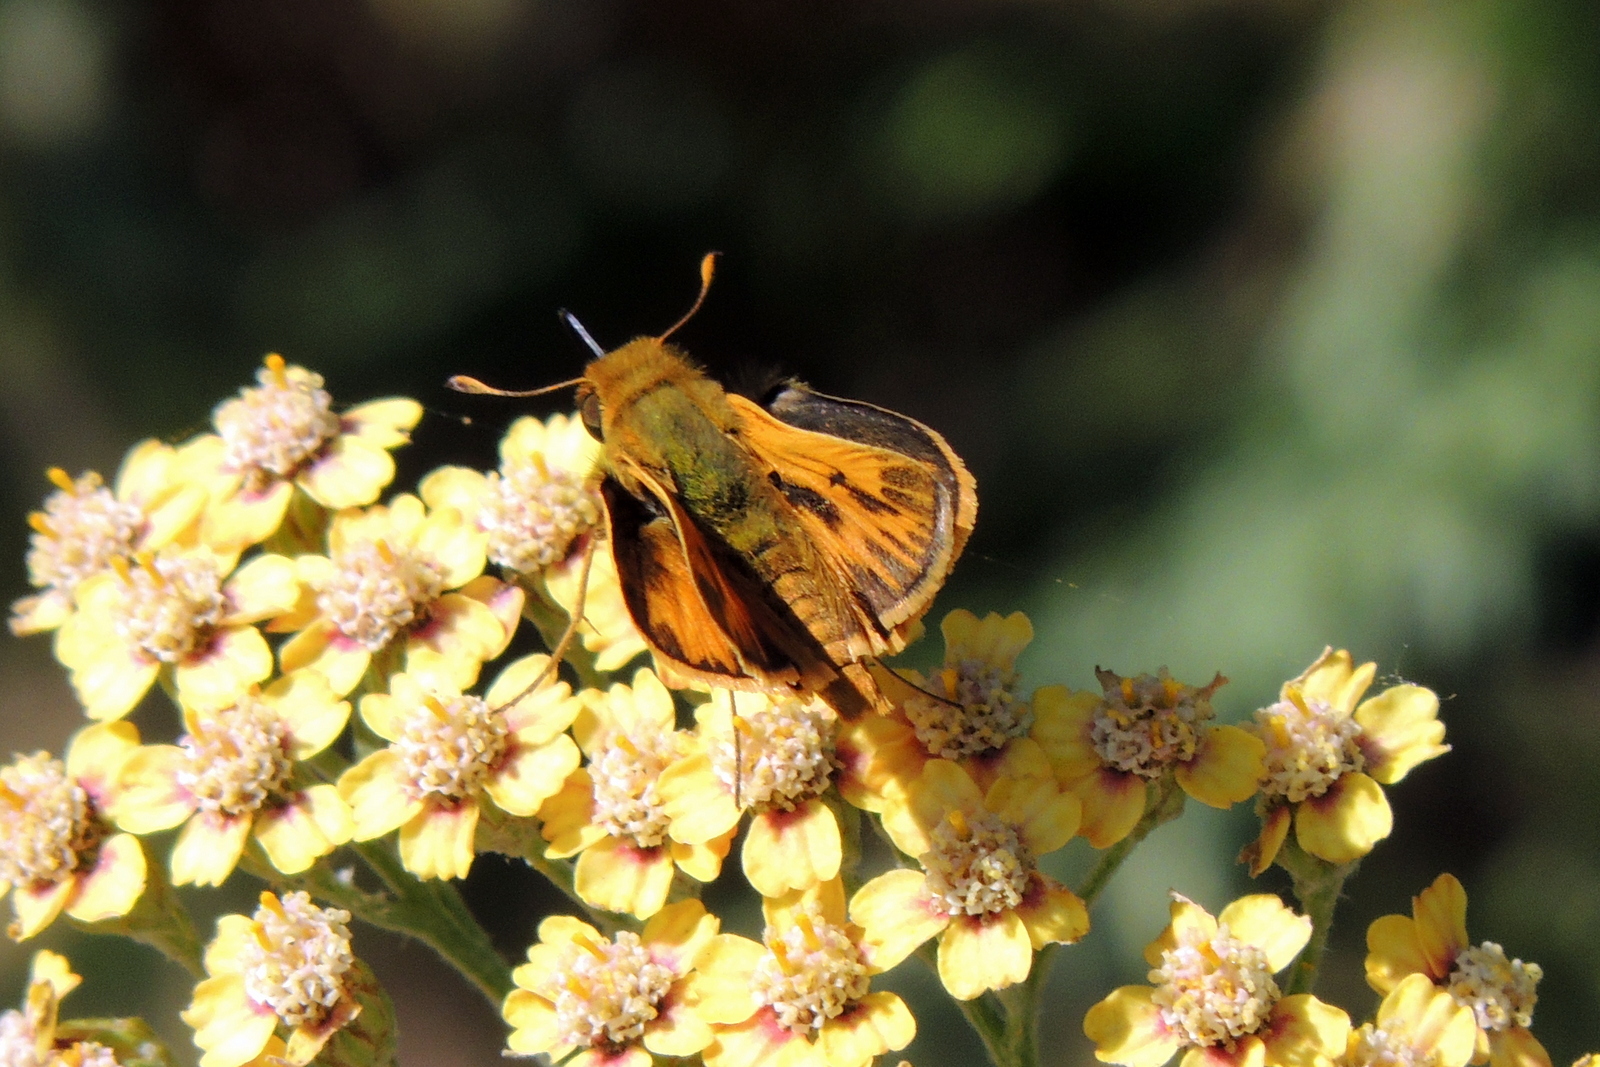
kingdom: Animalia
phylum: Arthropoda
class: Insecta
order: Lepidoptera
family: Hesperiidae
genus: Hylephila
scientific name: Hylephila phyleus
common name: Fiery skipper
